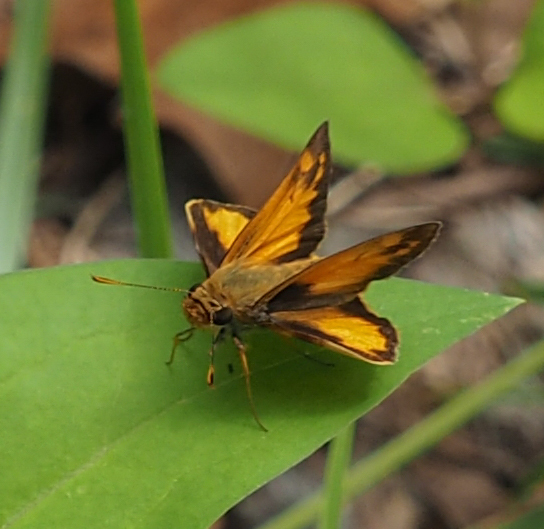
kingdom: Animalia
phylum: Arthropoda
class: Insecta
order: Lepidoptera
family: Hesperiidae
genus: Lon
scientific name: Lon zabulon
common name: Zabulon skipper
